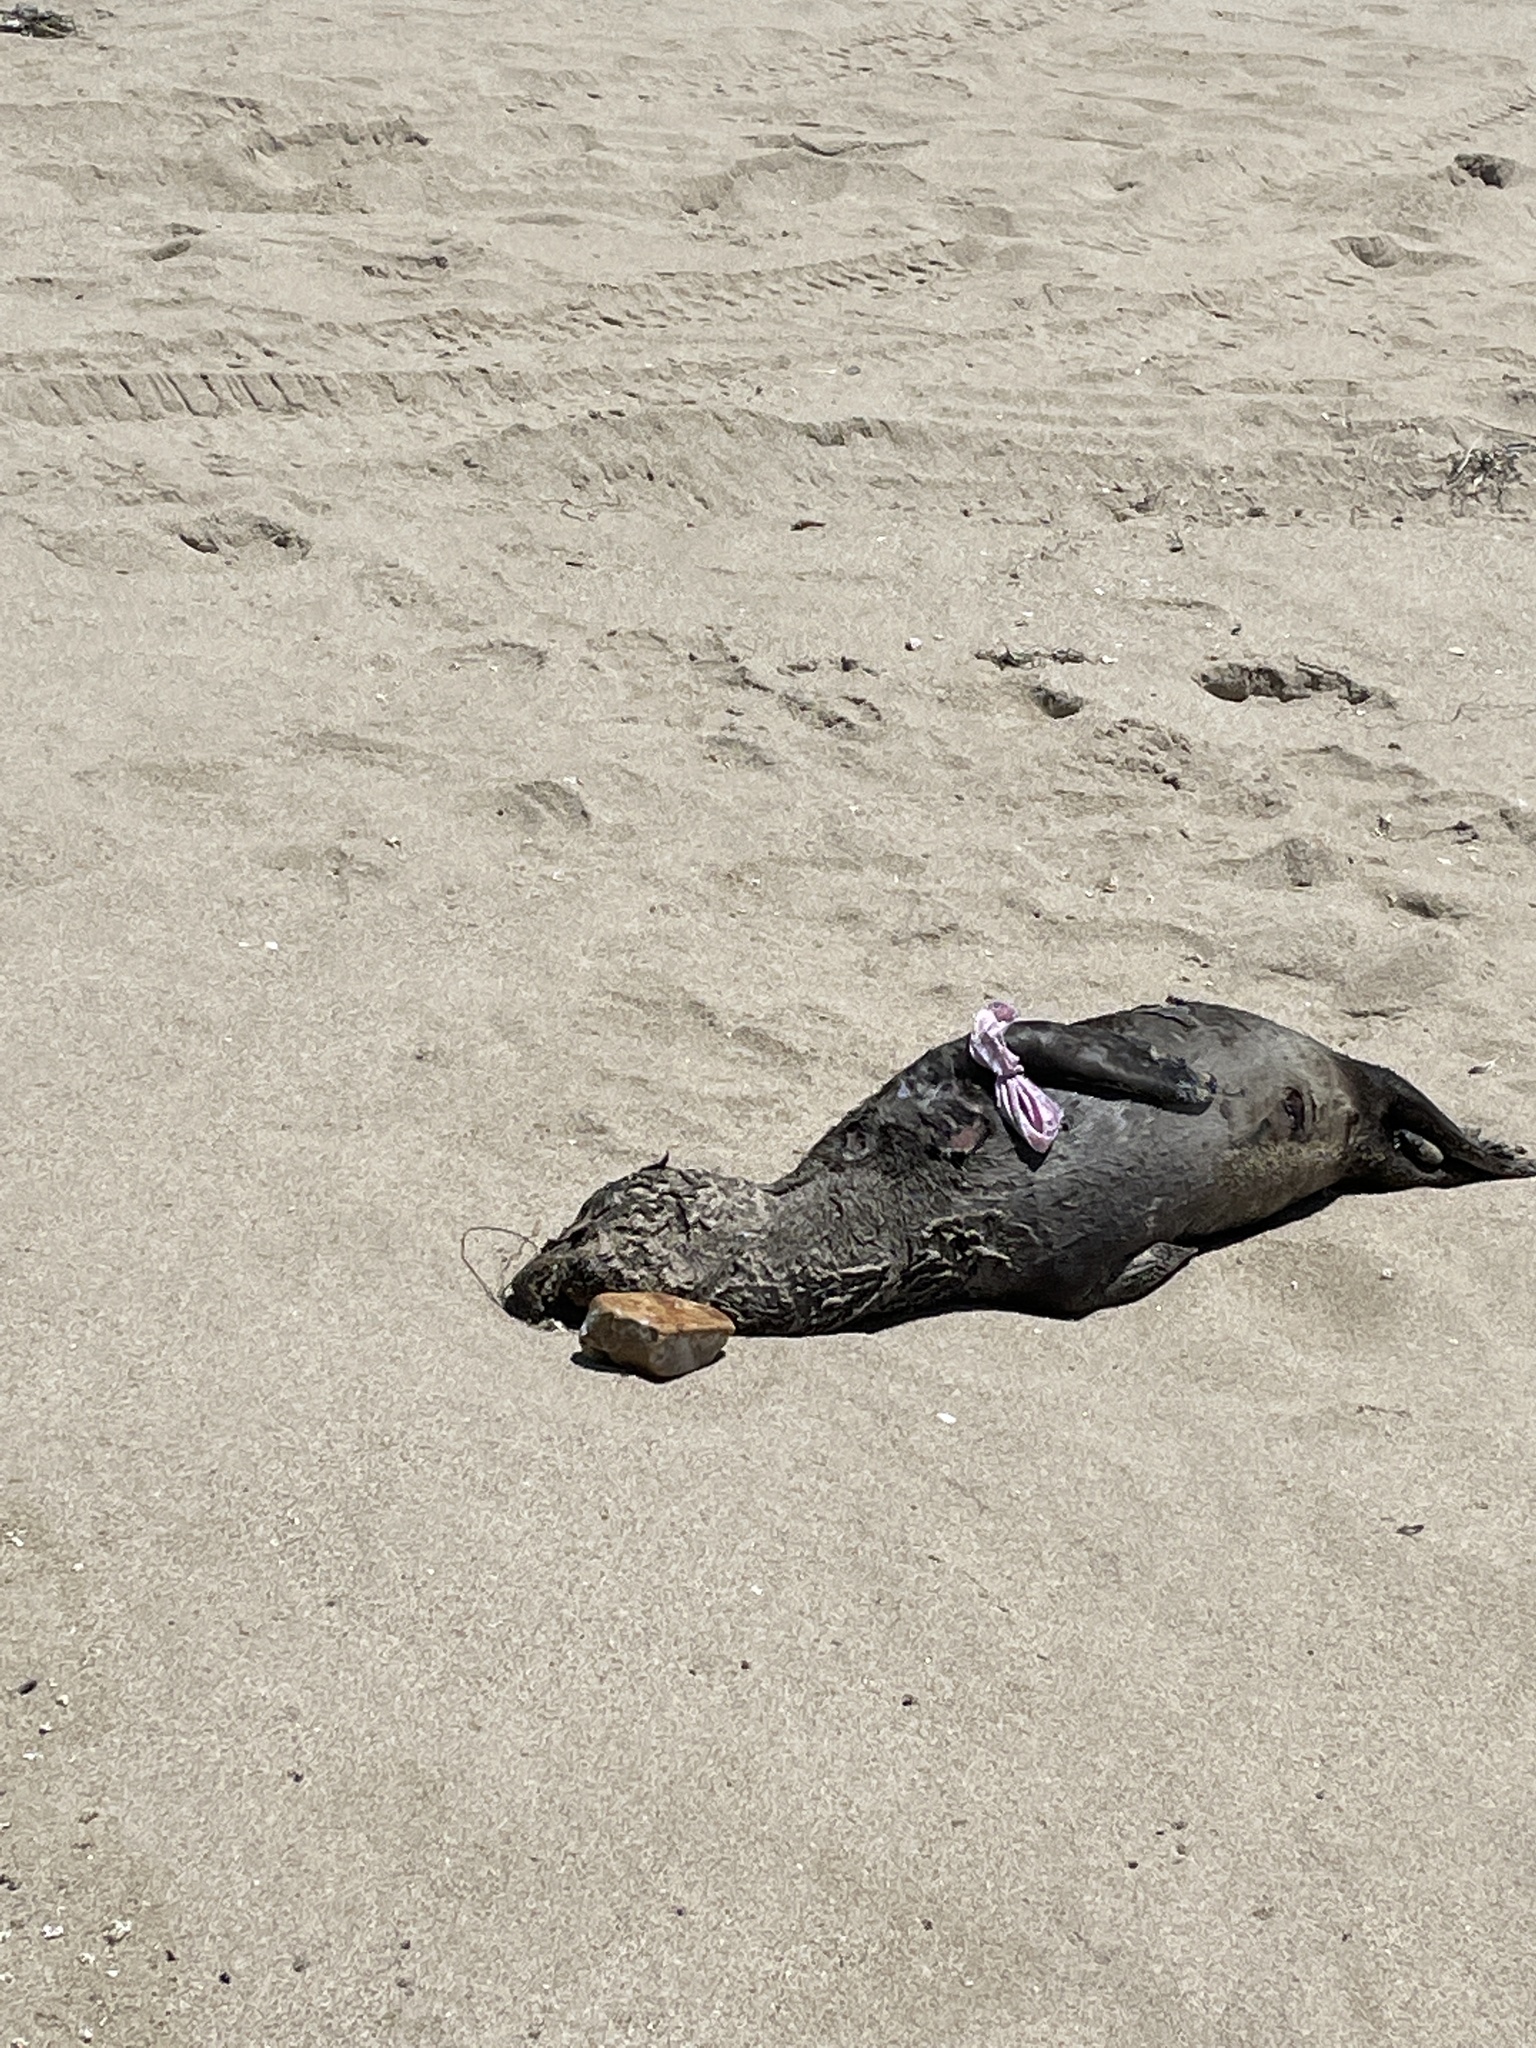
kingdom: Animalia
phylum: Chordata
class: Mammalia
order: Carnivora
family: Otariidae
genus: Zalophus
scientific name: Zalophus californianus
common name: California sea lion
